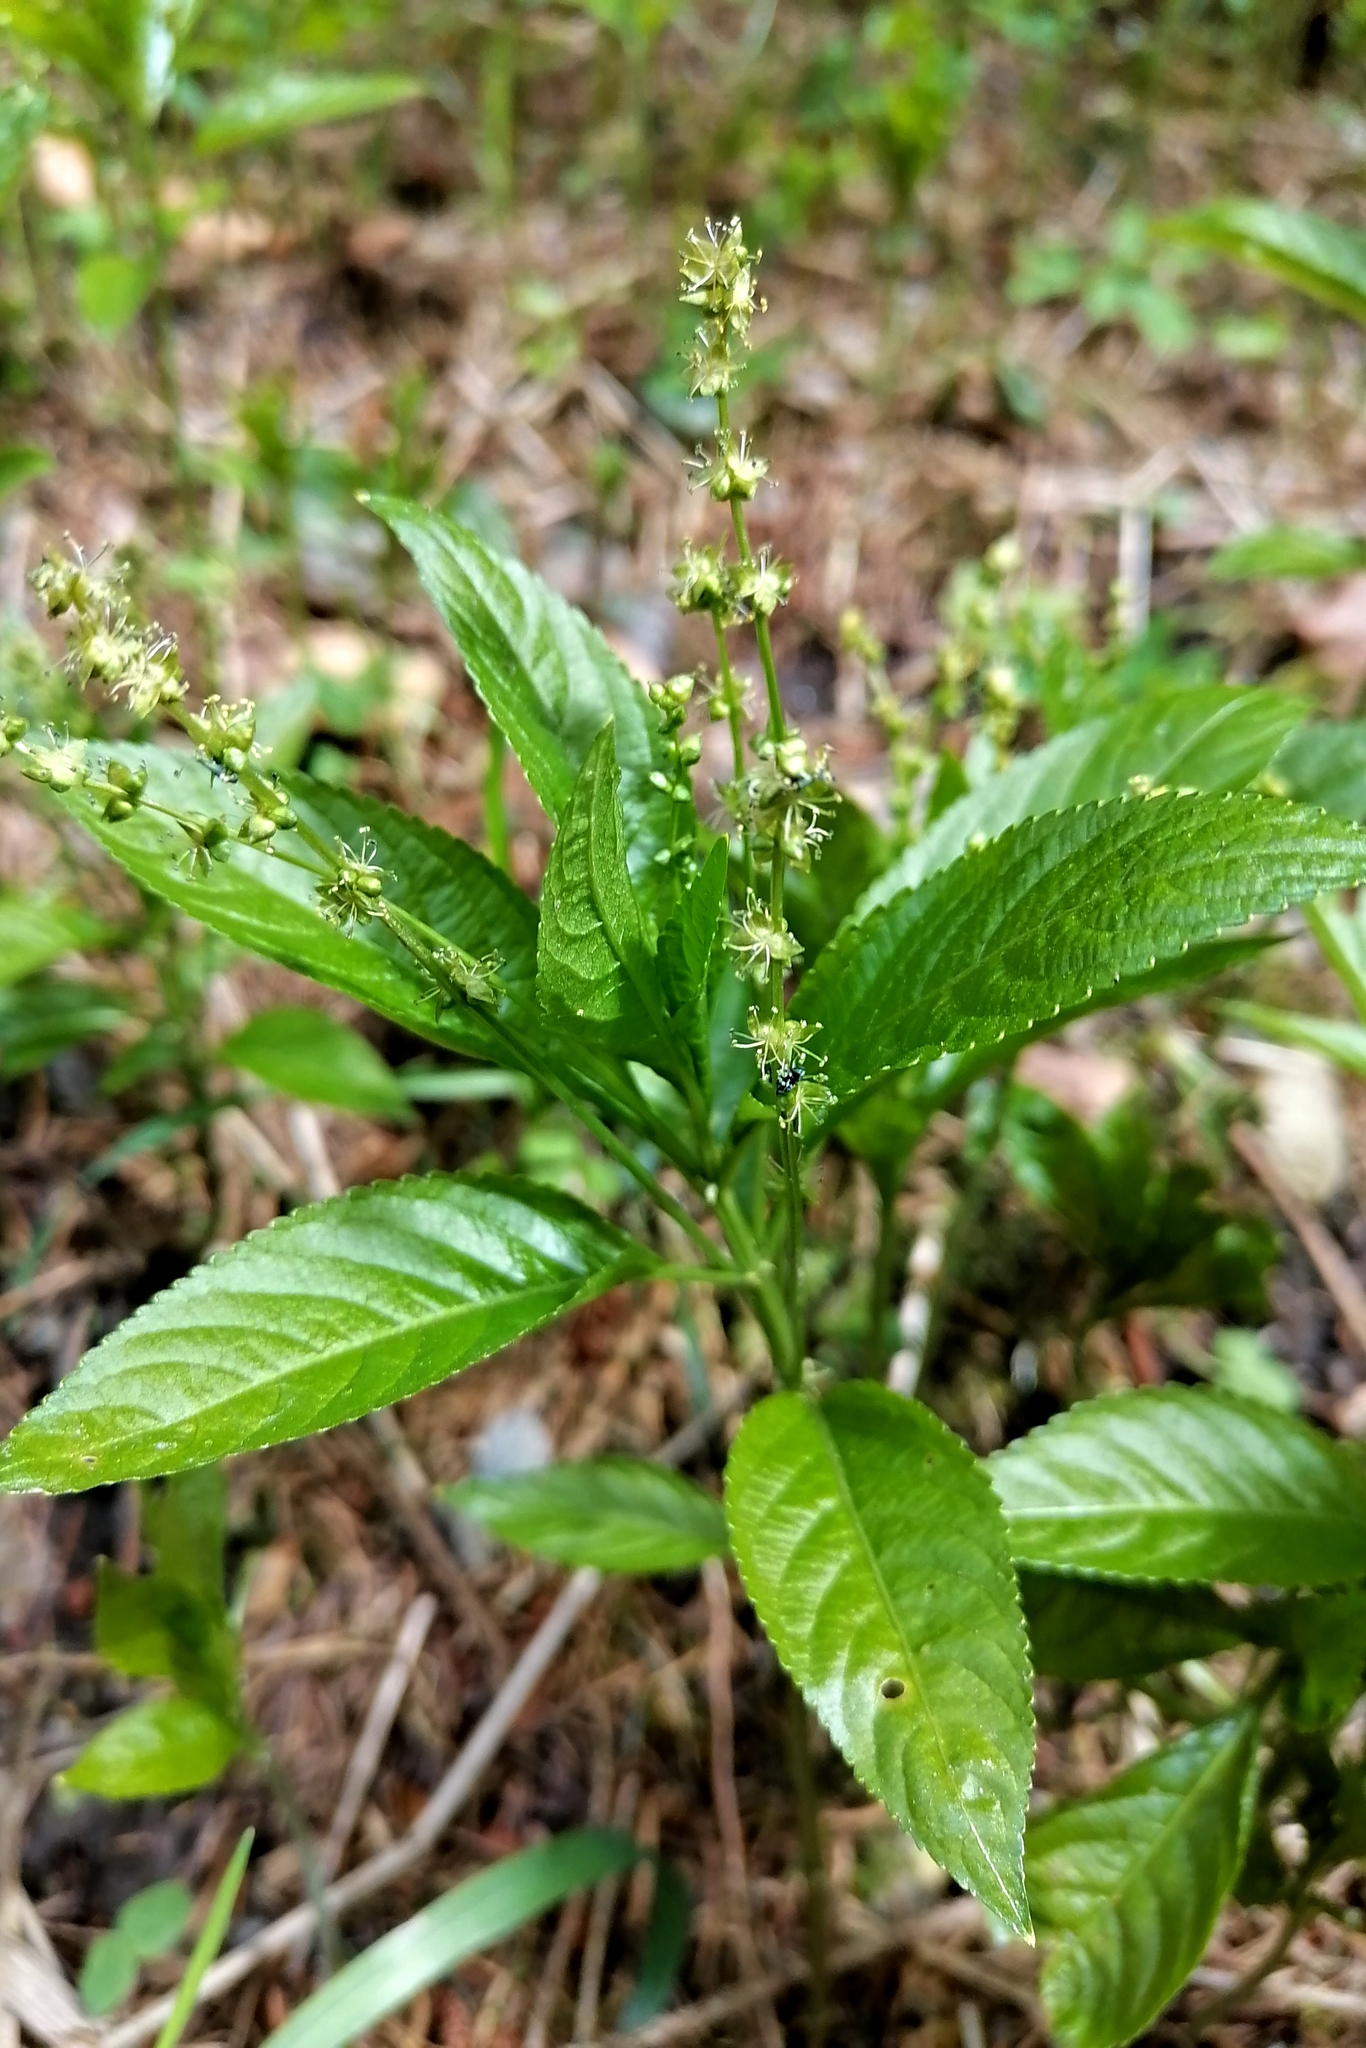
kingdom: Plantae
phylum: Tracheophyta
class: Magnoliopsida
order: Malpighiales
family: Euphorbiaceae
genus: Mercurialis
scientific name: Mercurialis perennis
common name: Dog mercury
